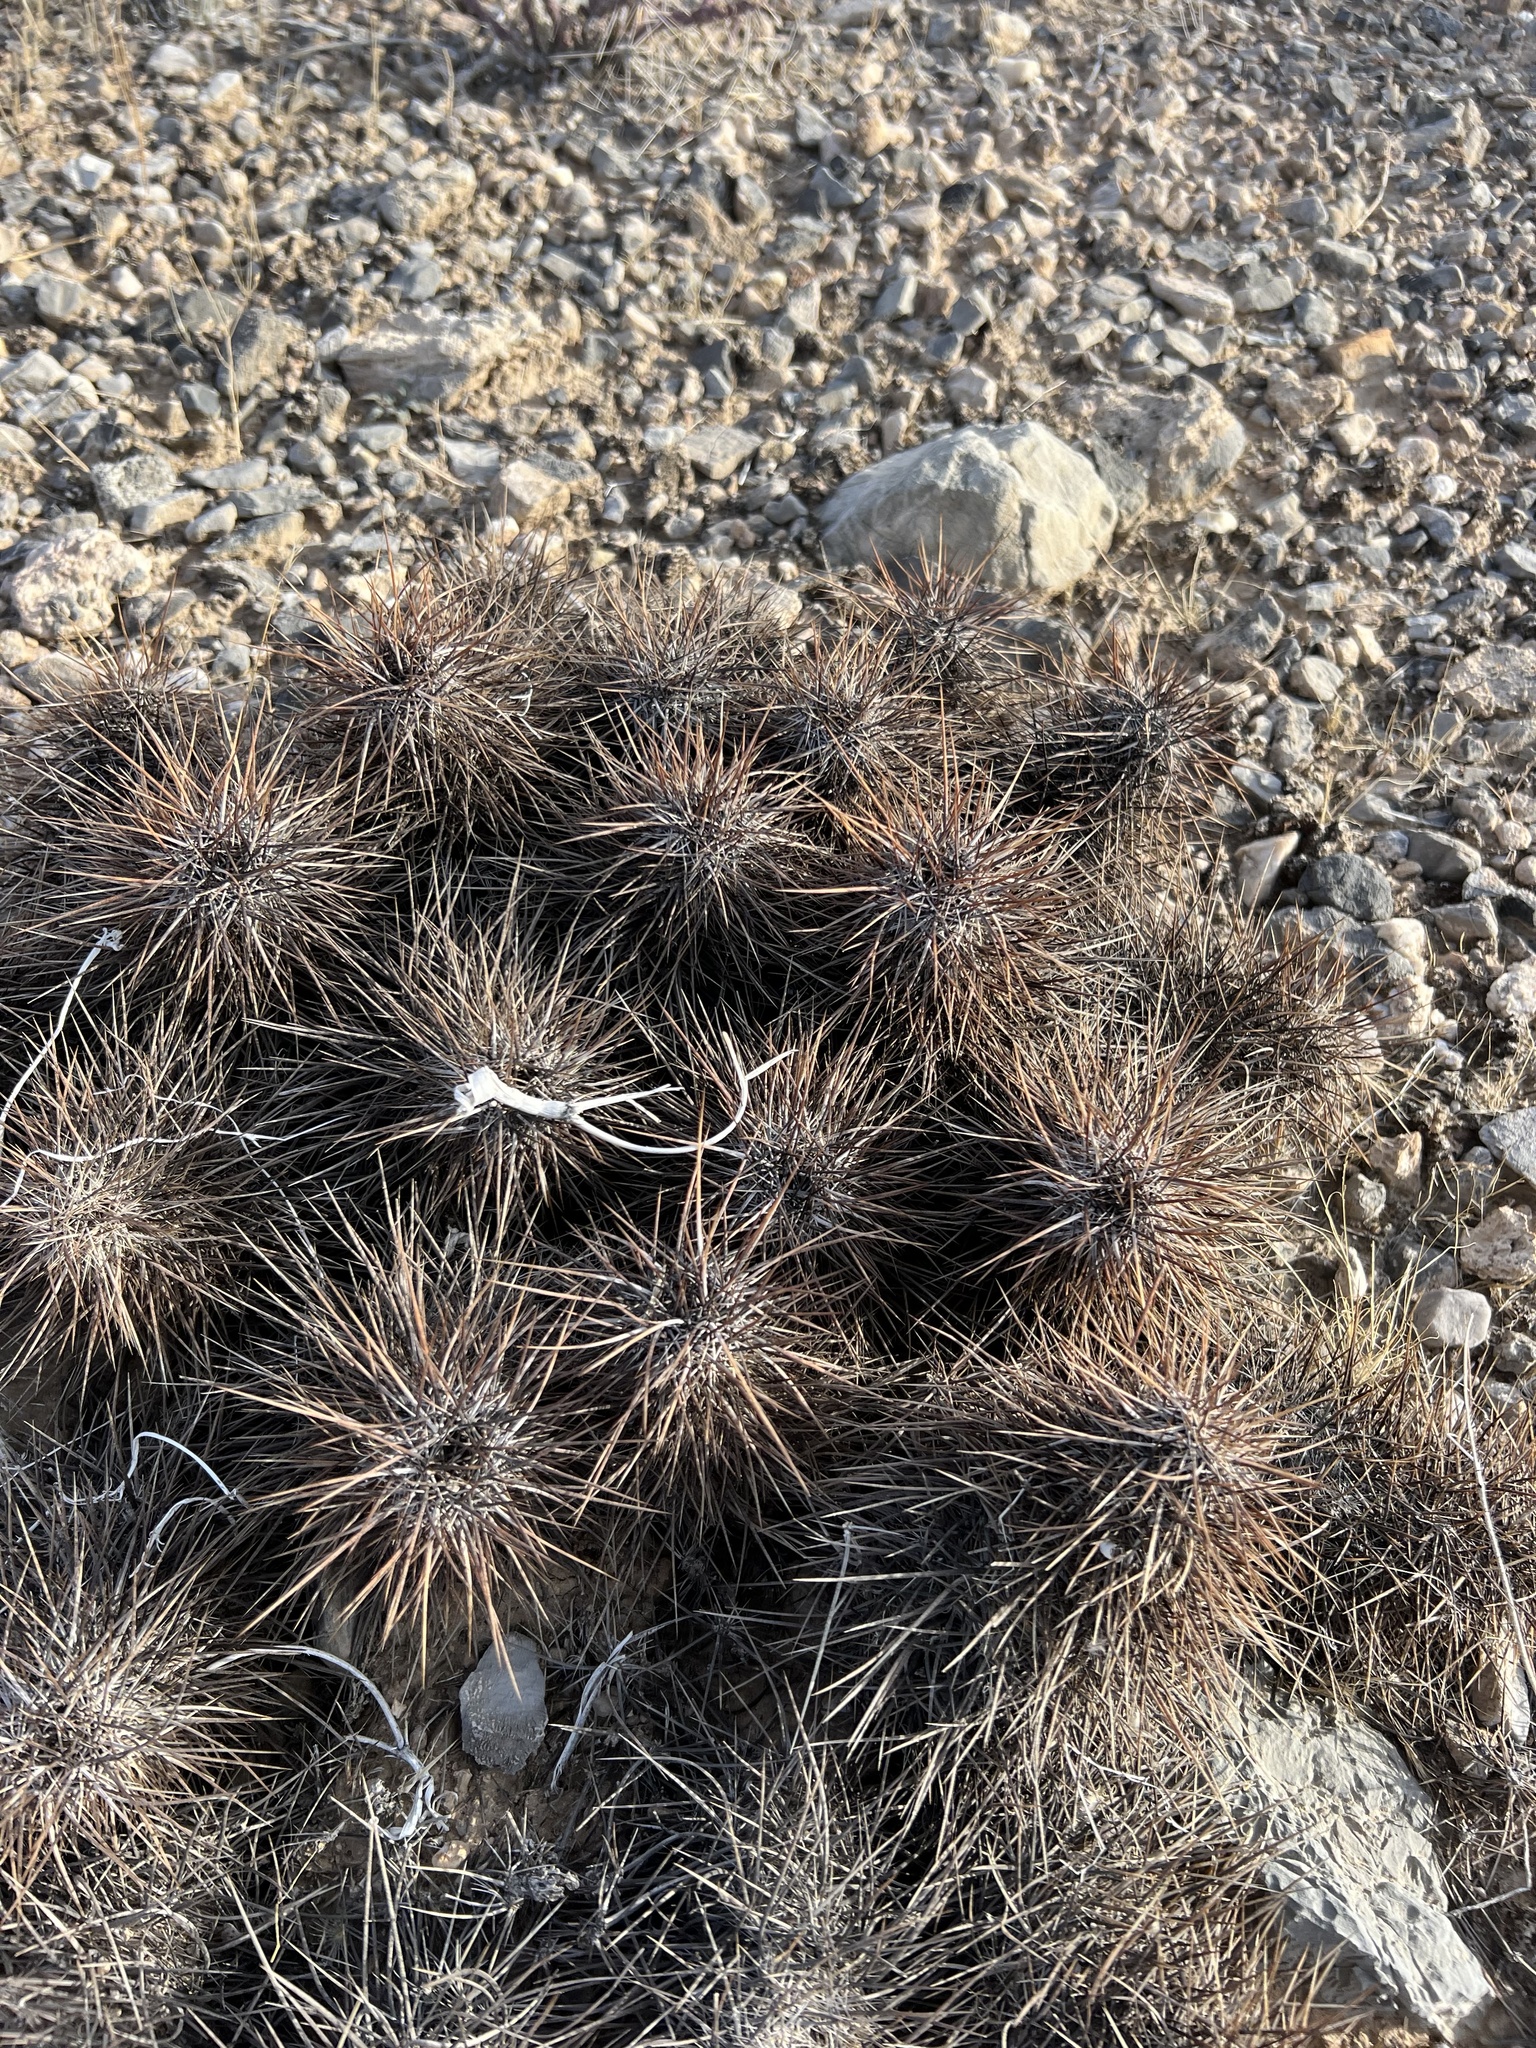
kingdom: Plantae
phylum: Tracheophyta
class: Magnoliopsida
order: Caryophyllales
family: Cactaceae
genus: Echinocereus
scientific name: Echinocereus engelmannii
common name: Engelmann's hedgehog cactus
